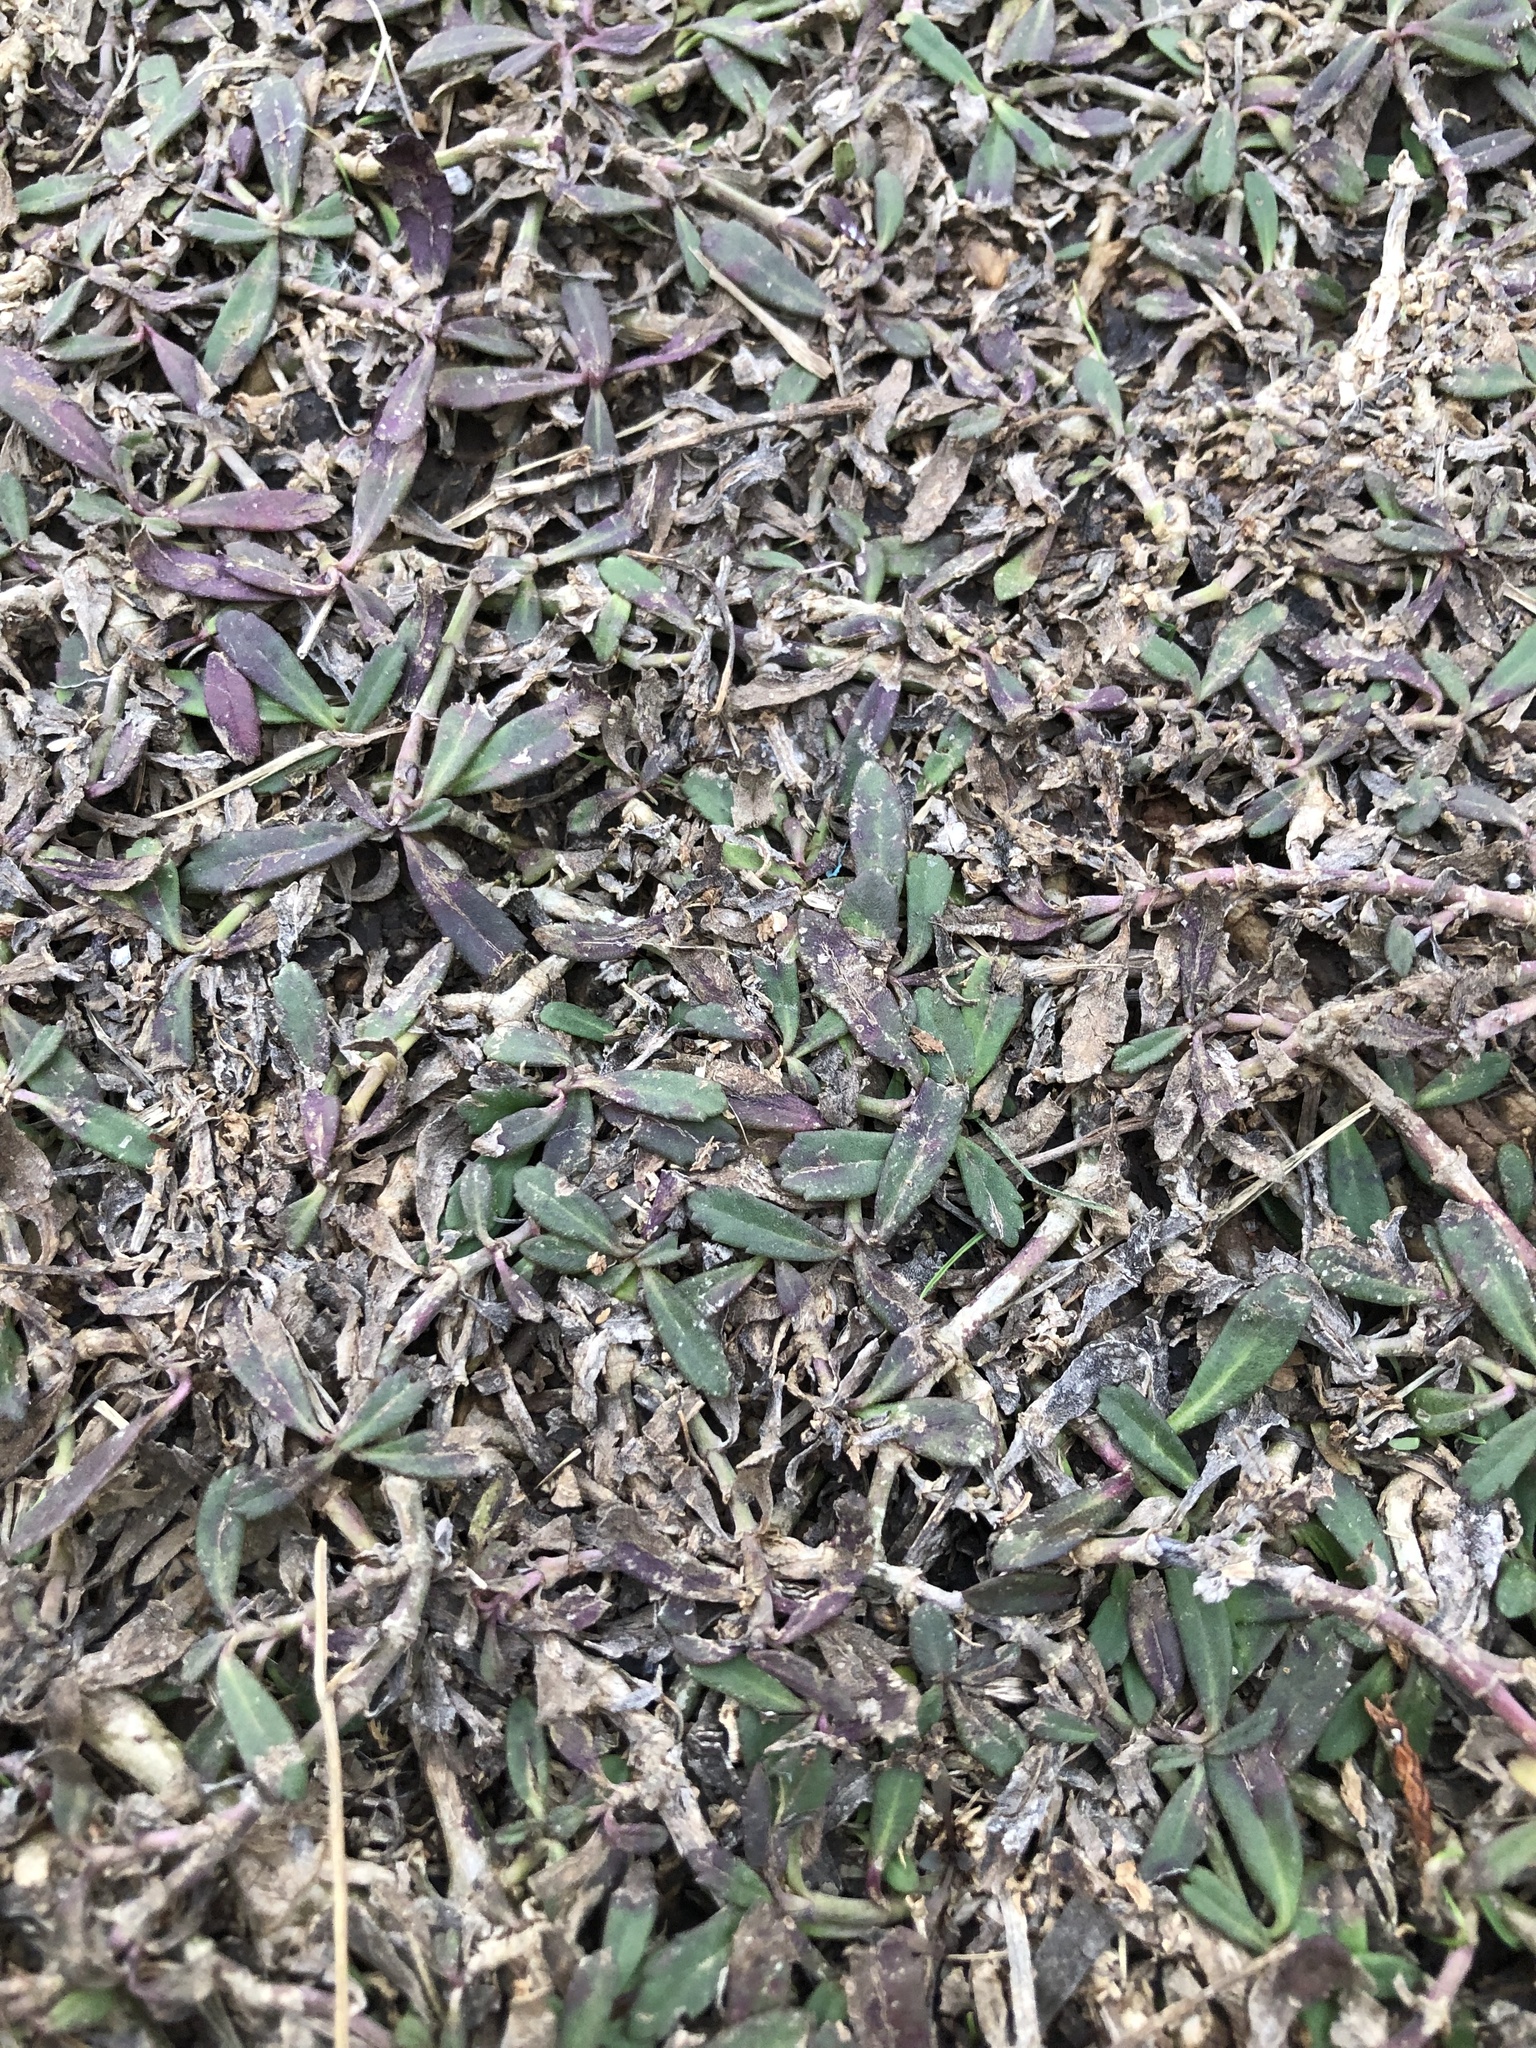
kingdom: Plantae
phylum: Tracheophyta
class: Magnoliopsida
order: Lamiales
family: Verbenaceae
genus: Phyla
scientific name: Phyla nodiflora
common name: Frogfruit
